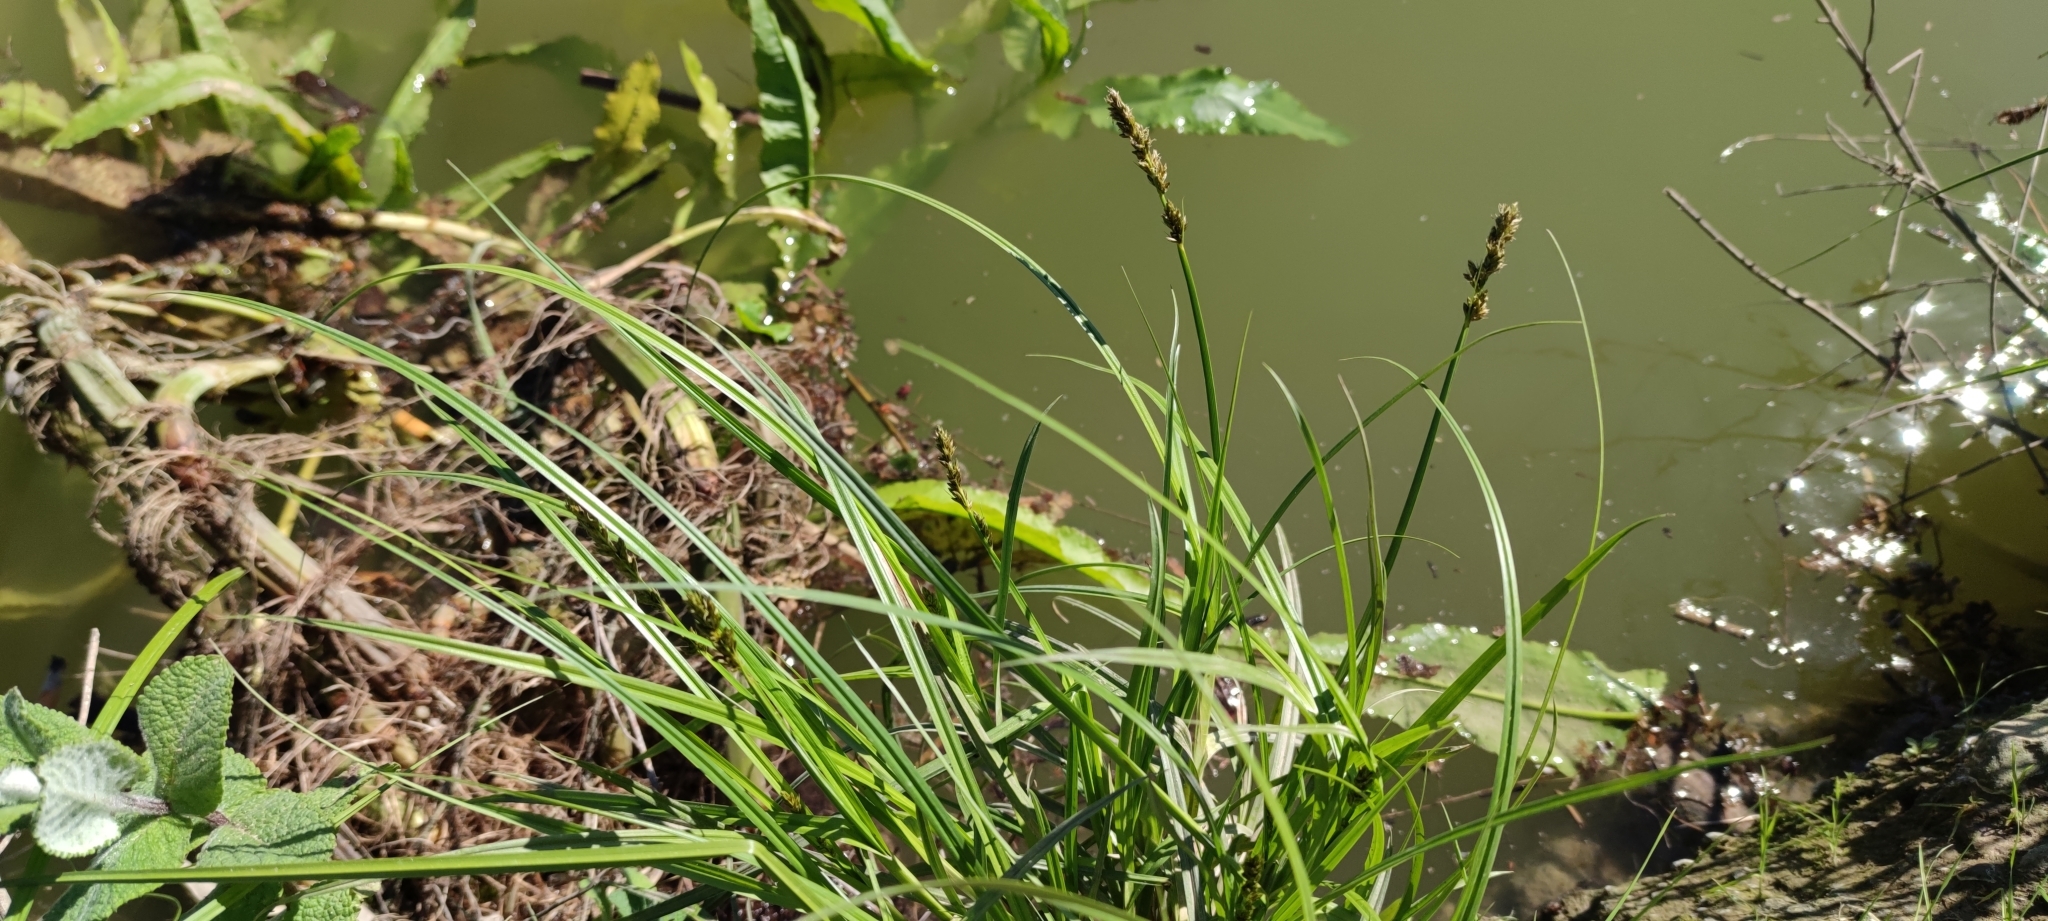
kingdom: Plantae
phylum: Tracheophyta
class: Liliopsida
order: Poales
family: Cyperaceae
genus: Carex
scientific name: Carex otrubae
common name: False fox-sedge
